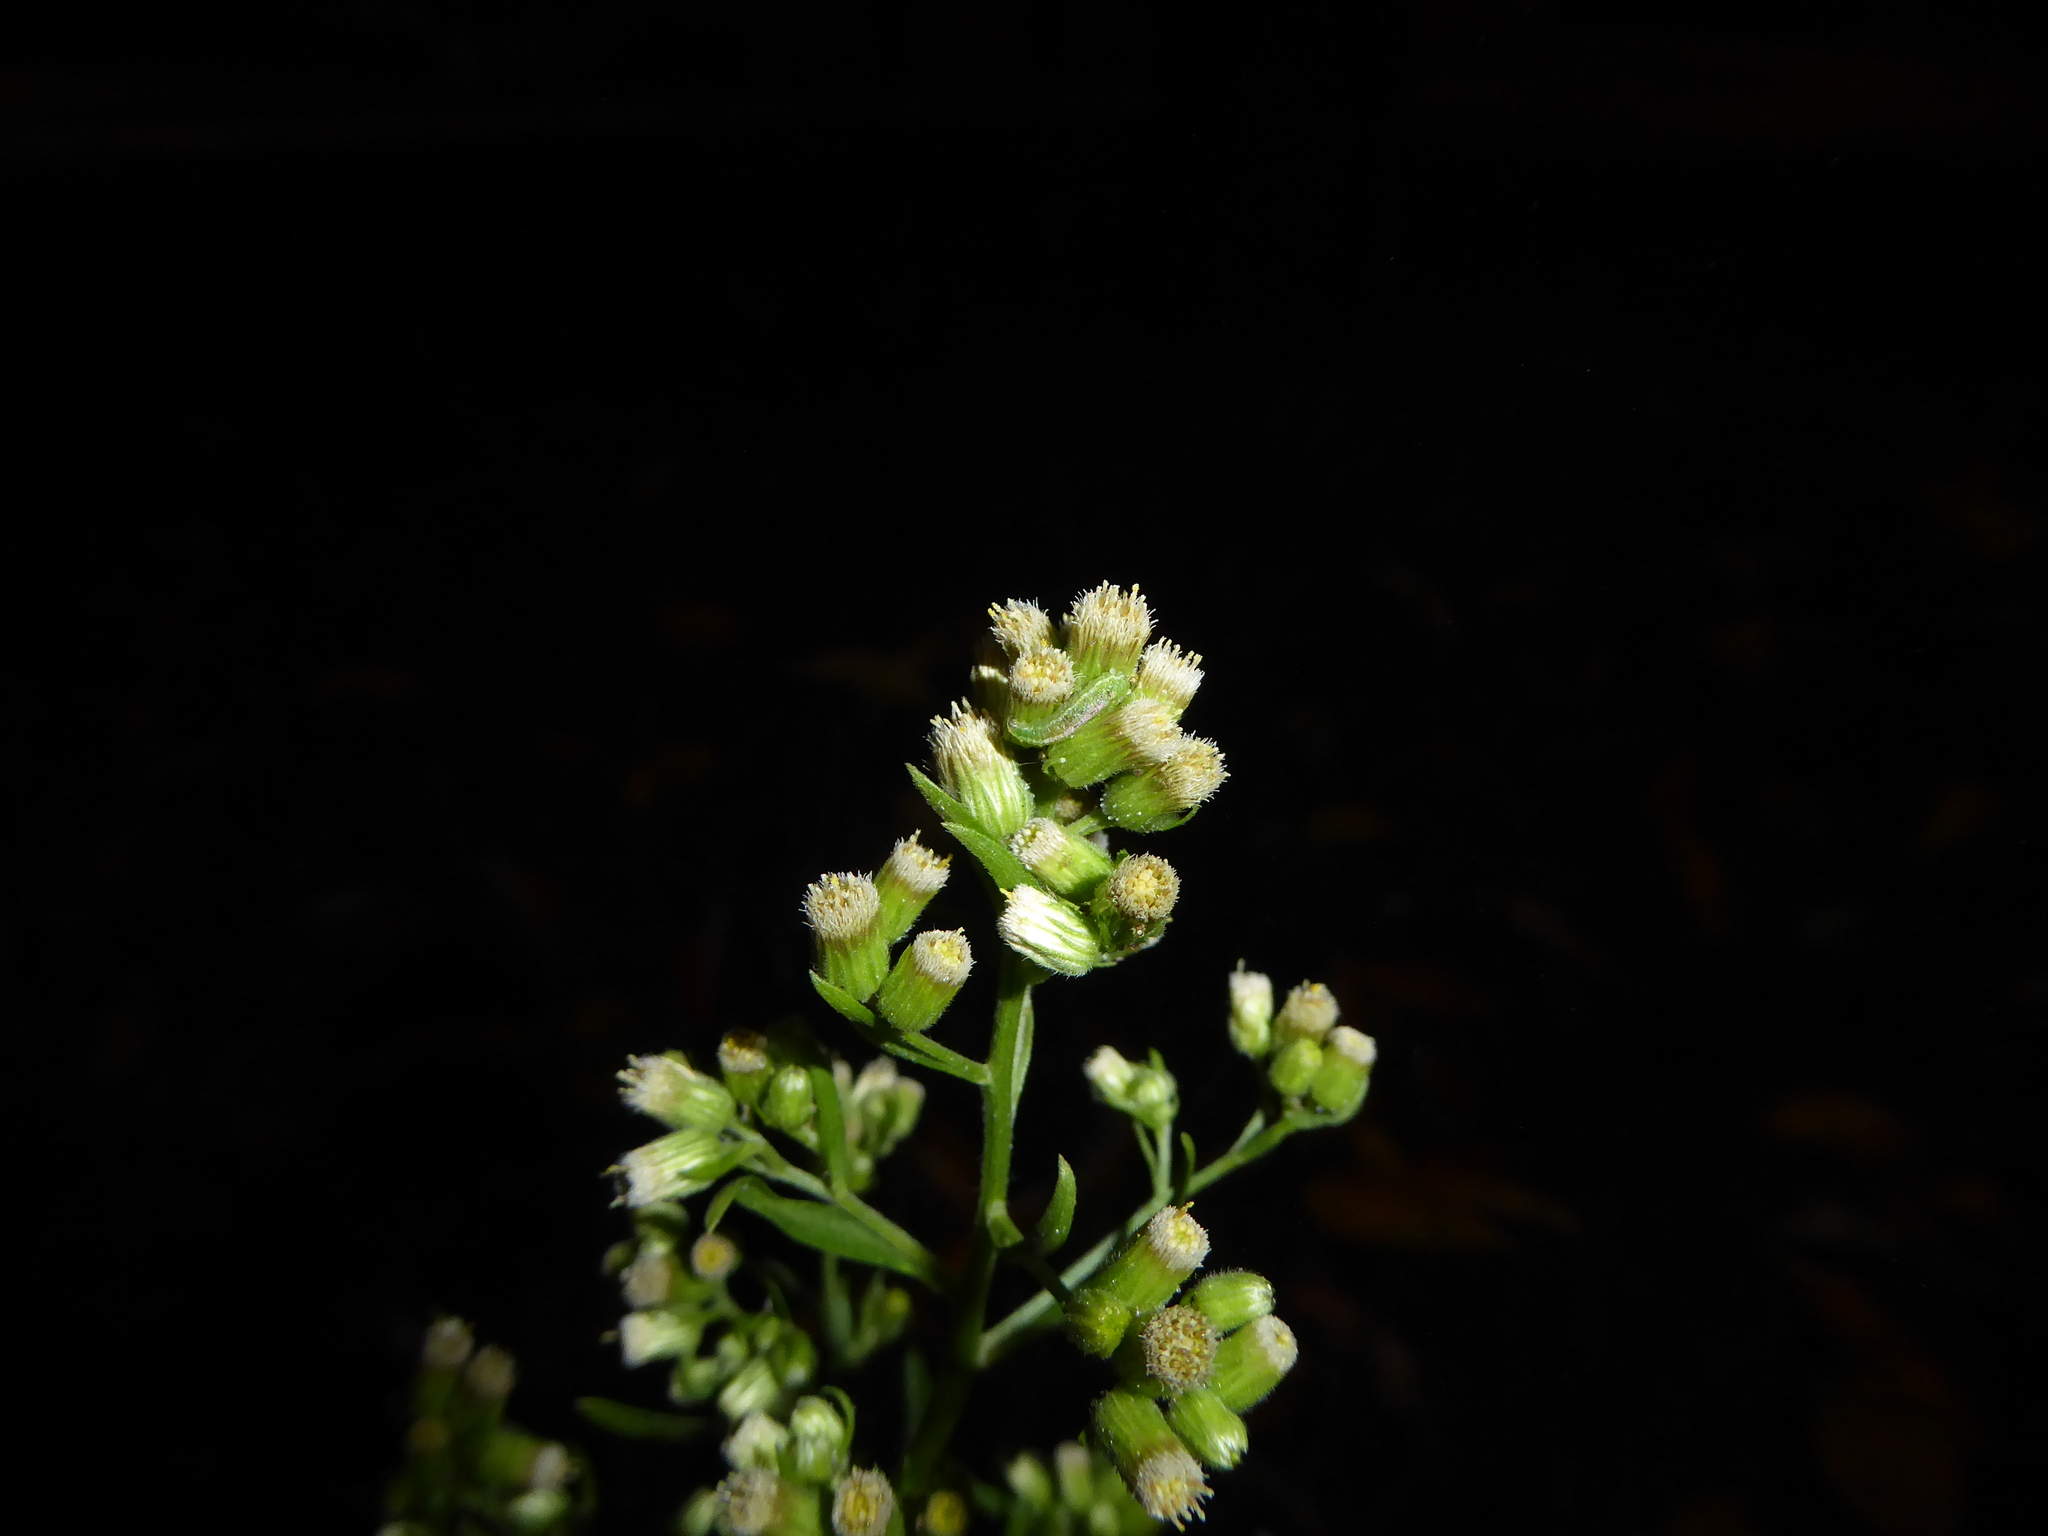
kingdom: Animalia
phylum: Arthropoda
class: Insecta
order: Diptera
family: Syrphidae
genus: Platycheirus
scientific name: Platycheirus
